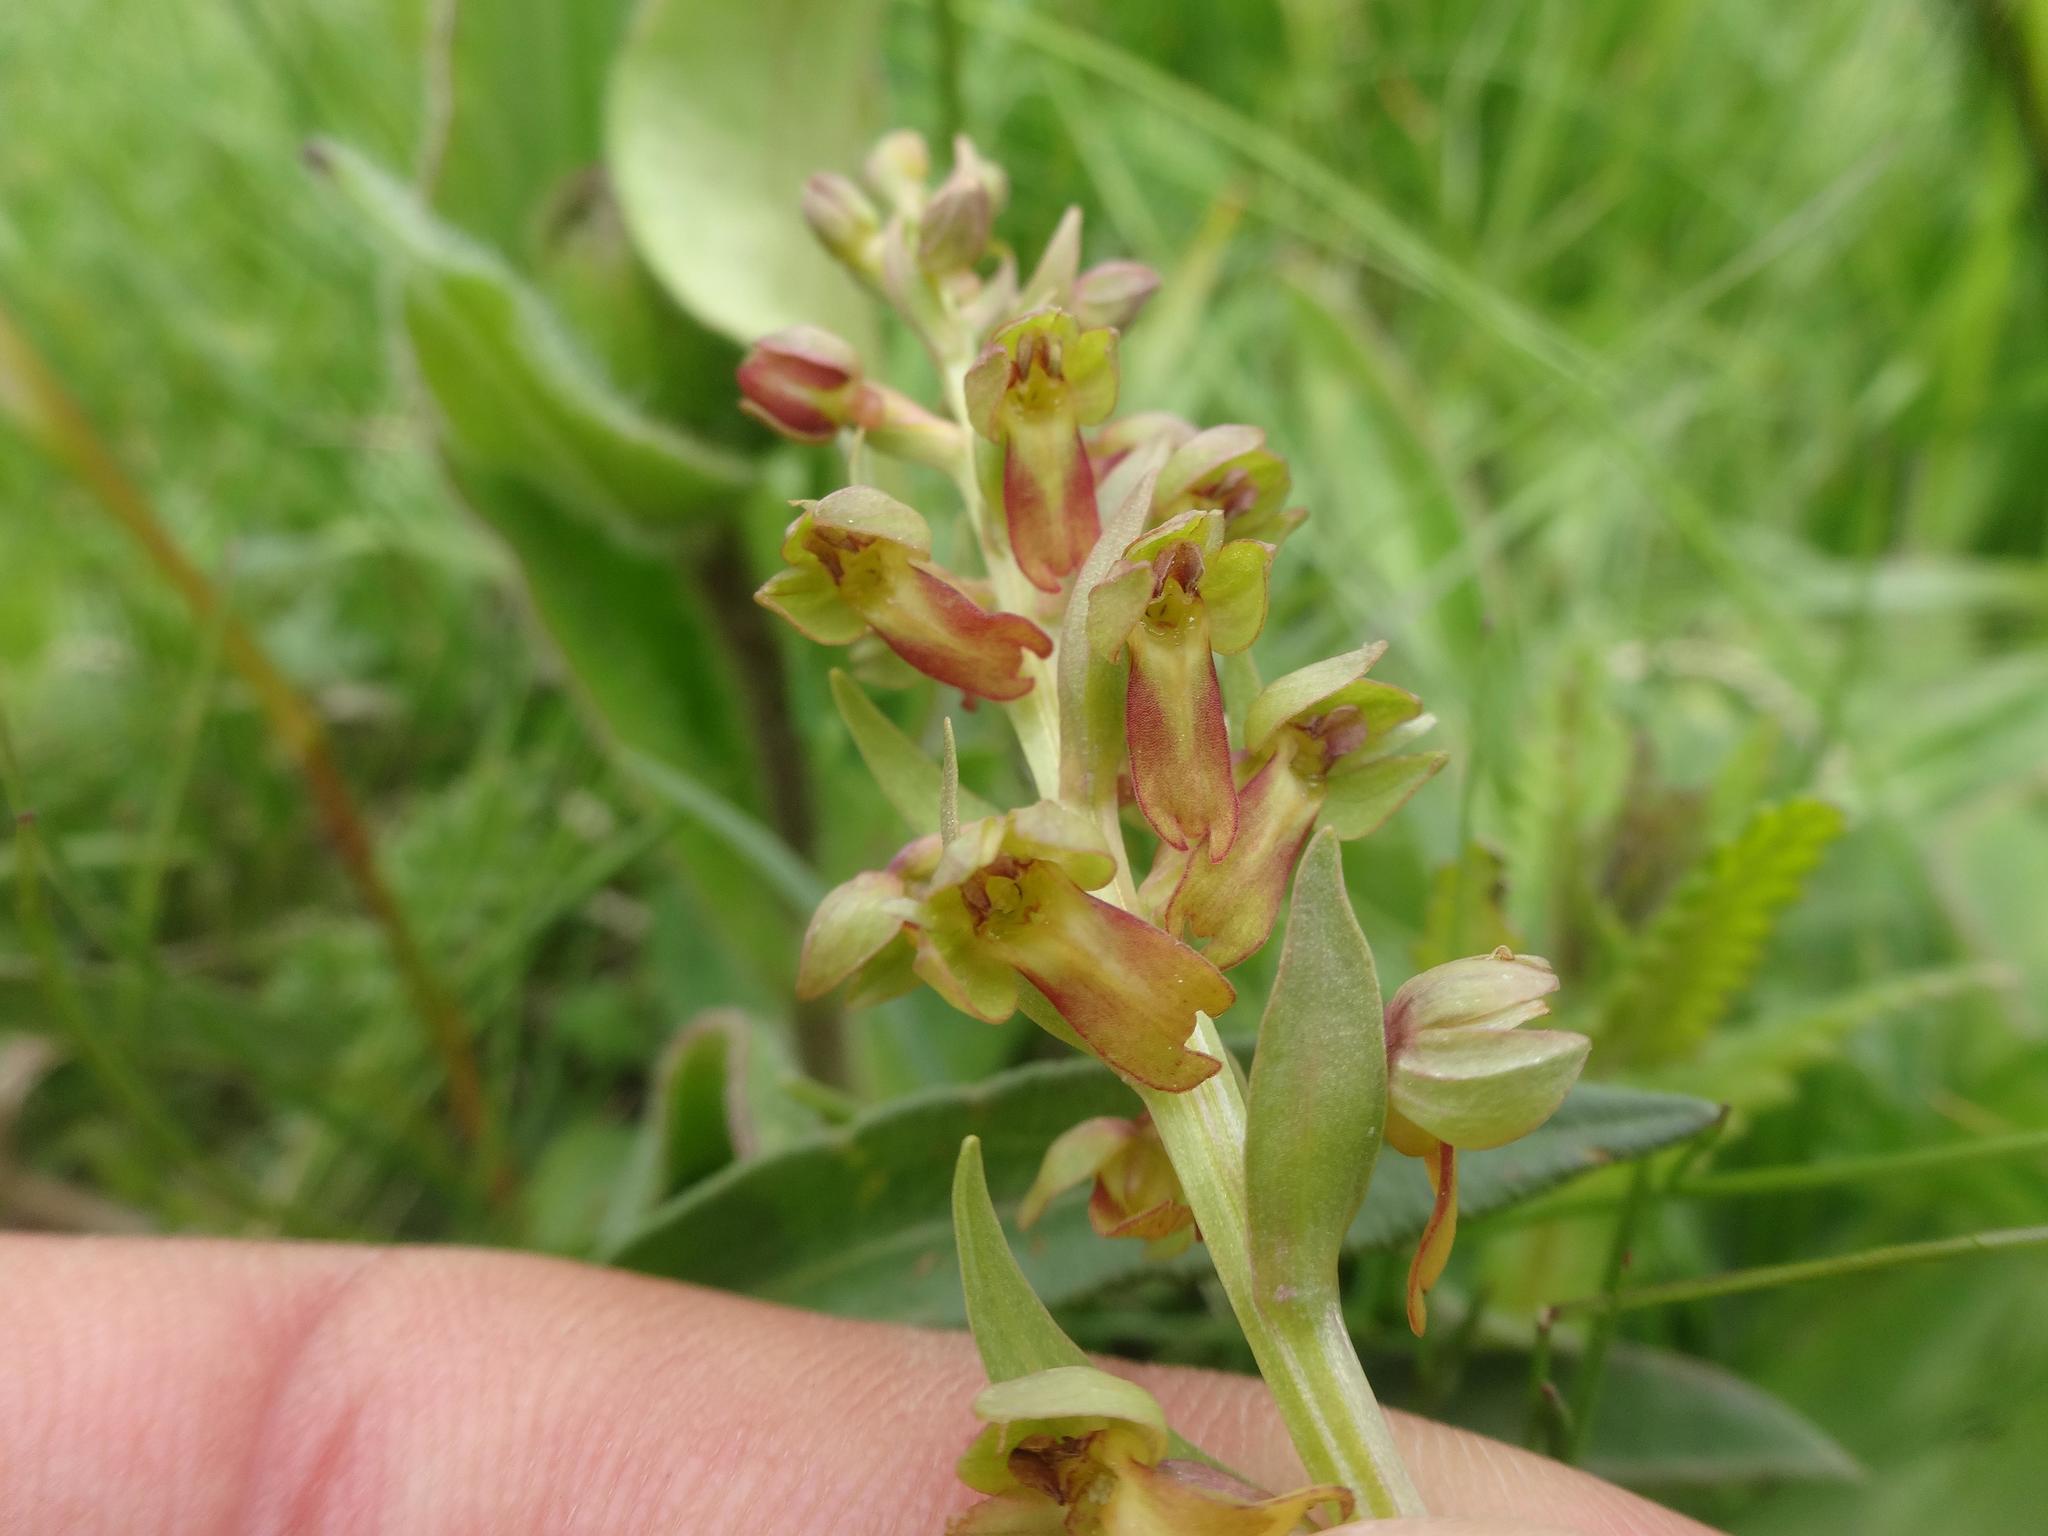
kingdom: Plantae
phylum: Tracheophyta
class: Liliopsida
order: Asparagales
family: Orchidaceae
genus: Dactylorhiza
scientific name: Dactylorhiza viridis
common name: Longbract frog orchid
